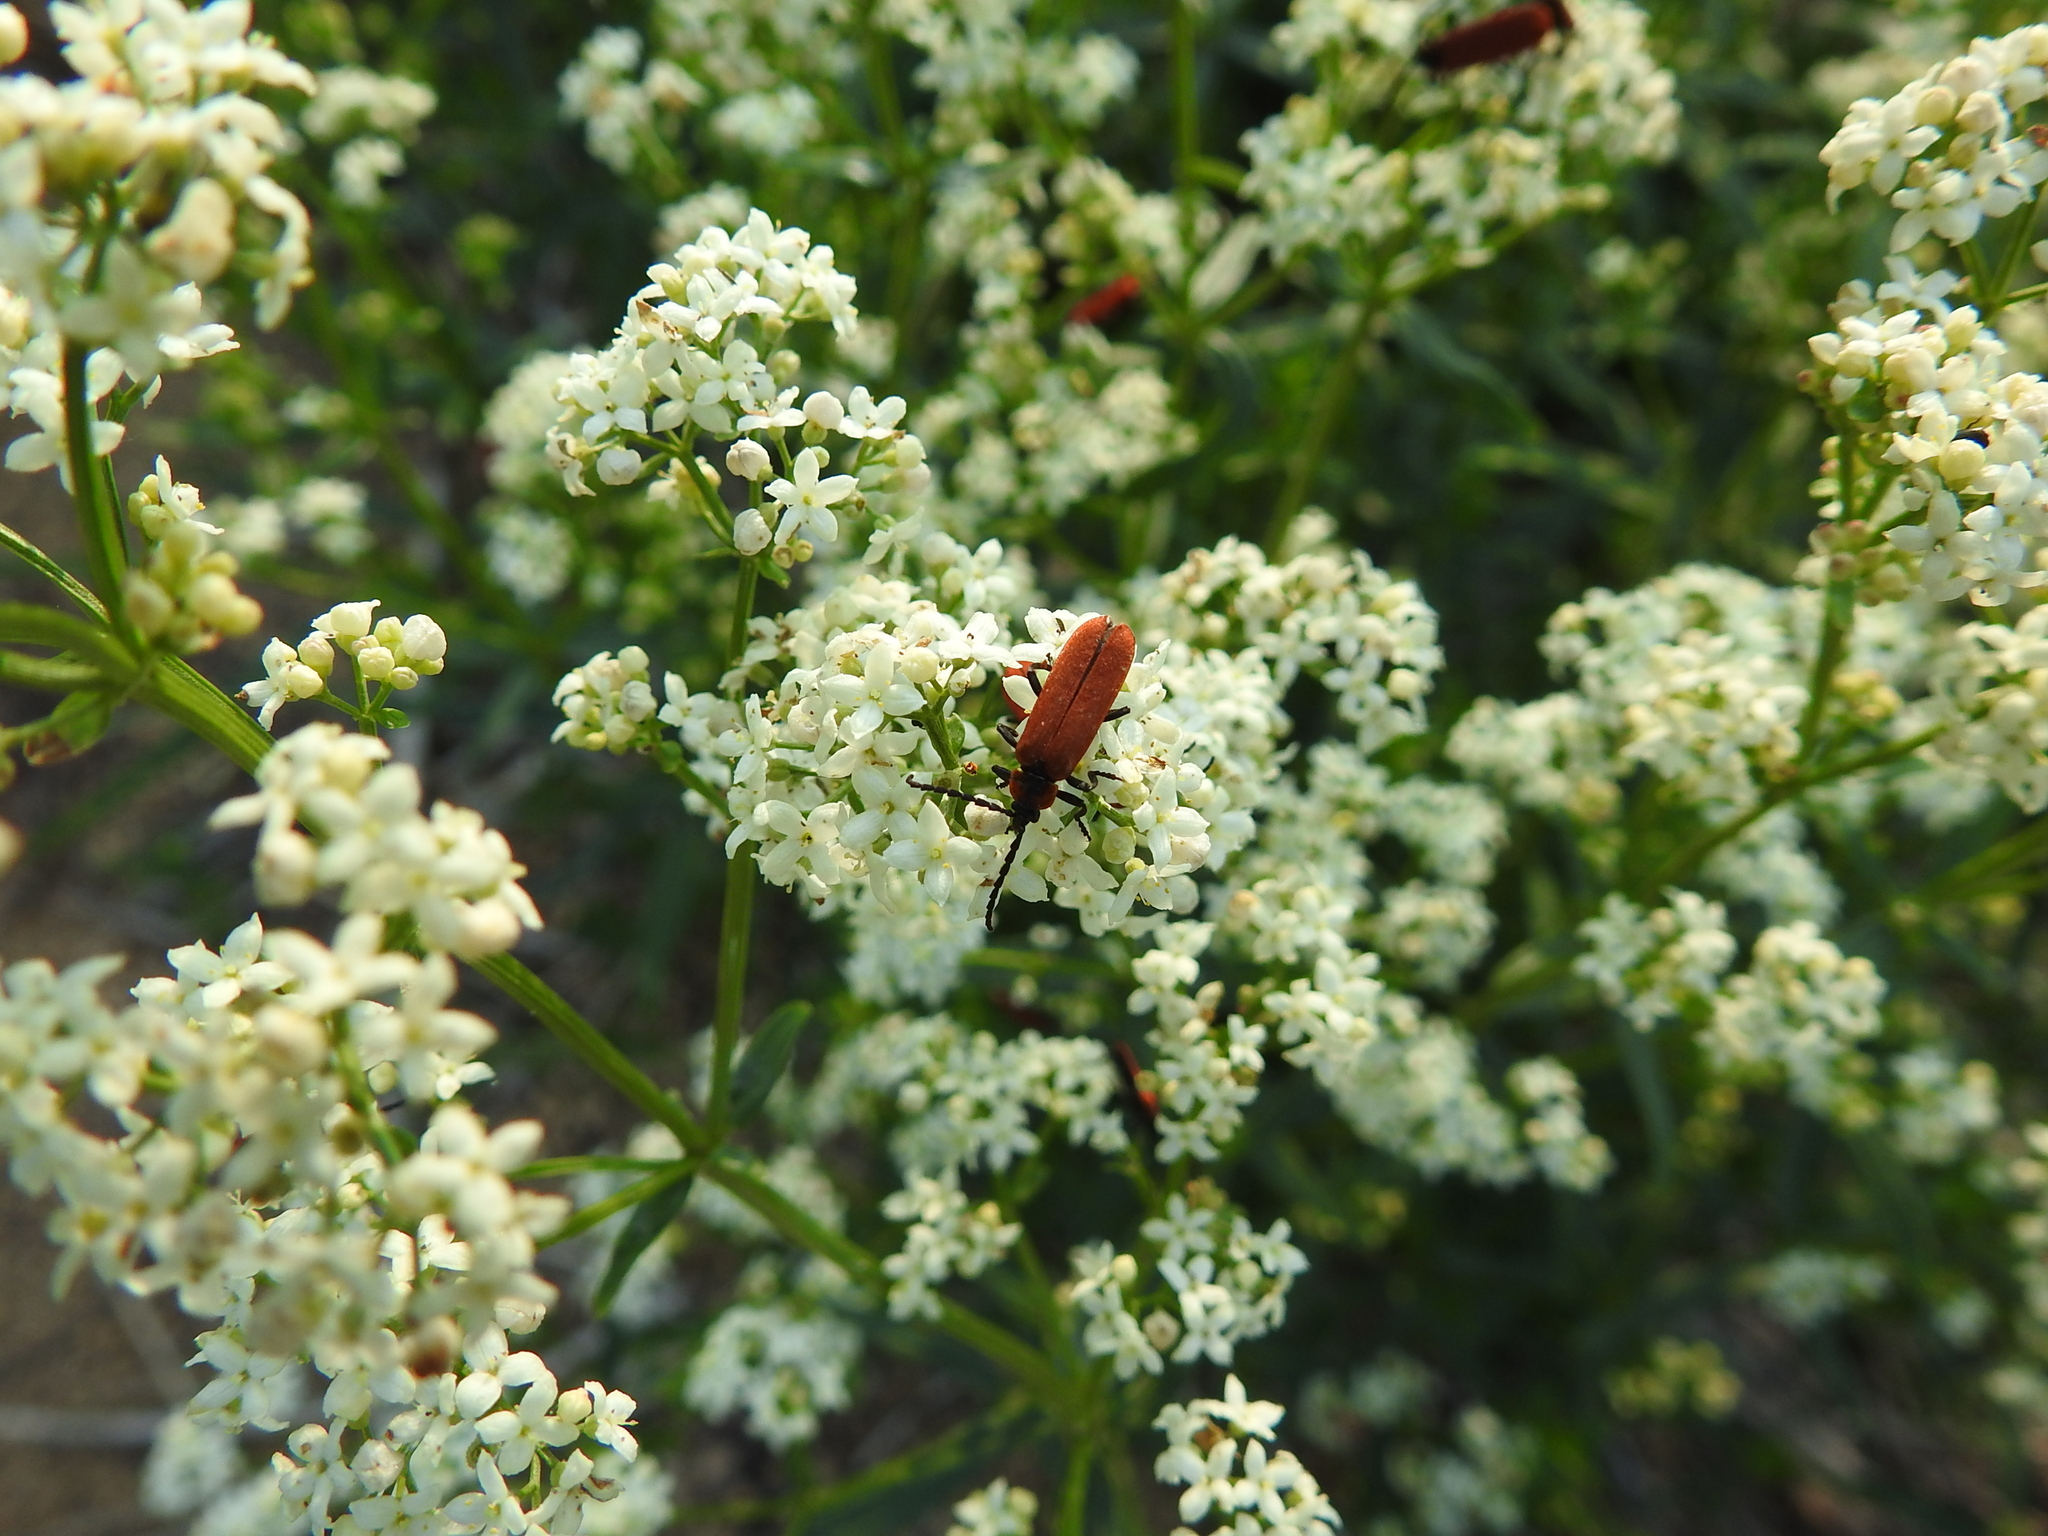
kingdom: Animalia
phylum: Arthropoda
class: Insecta
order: Coleoptera
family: Lycidae
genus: Lygistopterus
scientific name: Lygistopterus sanguineus
